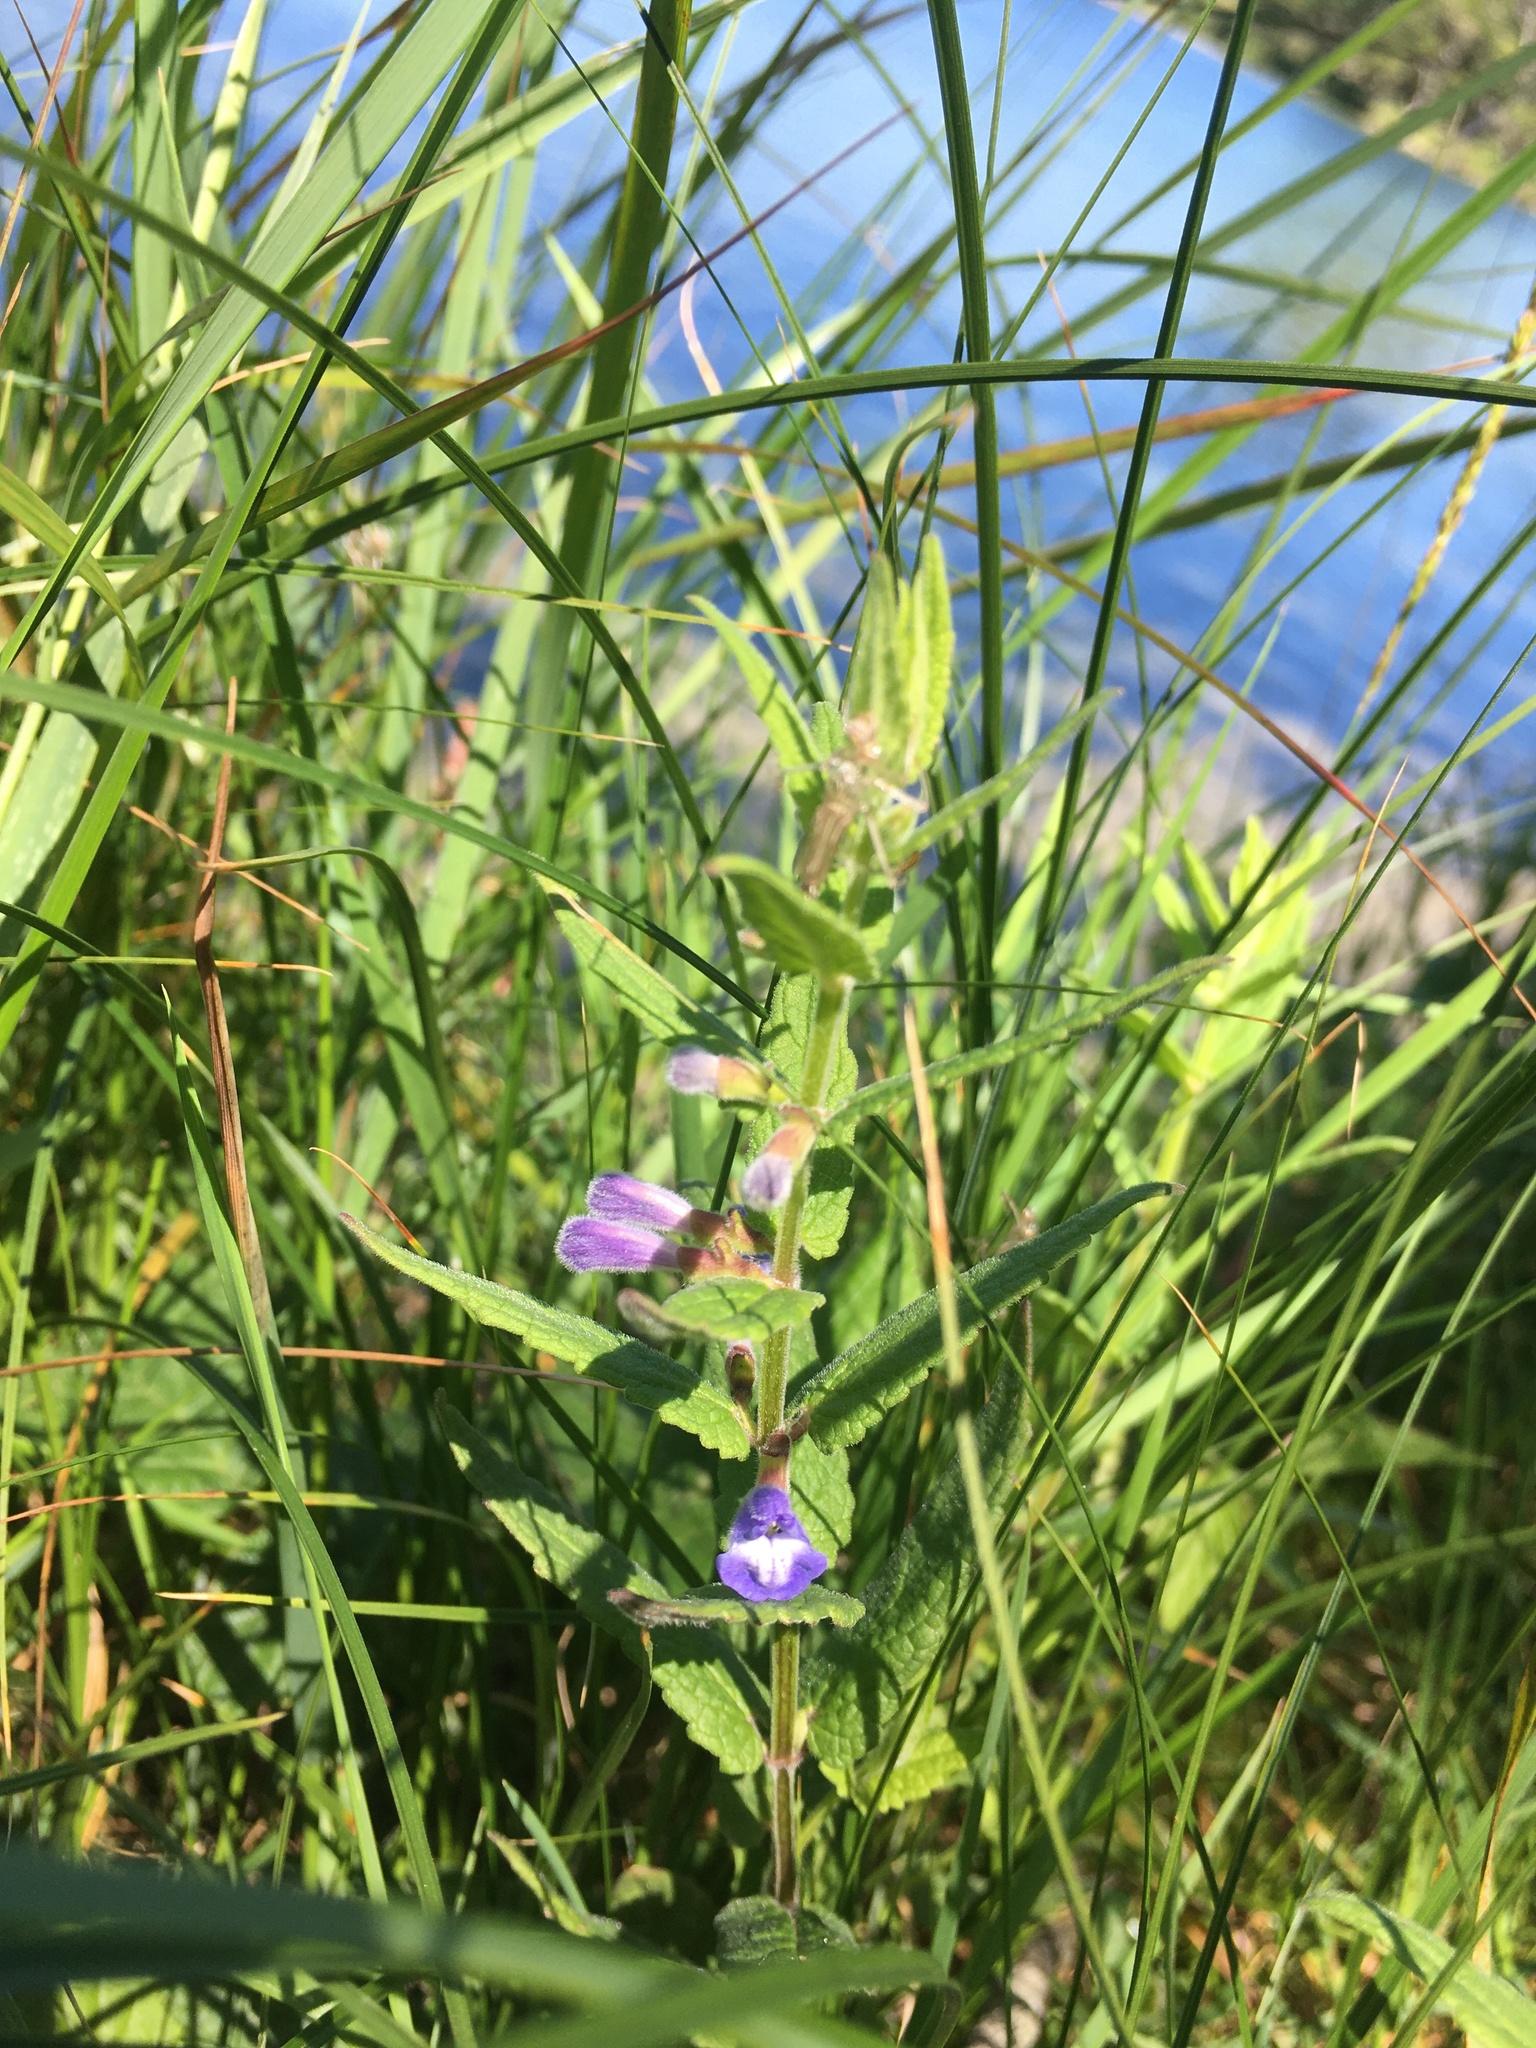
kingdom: Plantae
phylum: Tracheophyta
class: Magnoliopsida
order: Lamiales
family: Lamiaceae
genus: Scutellaria
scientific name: Scutellaria galericulata
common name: Skullcap
